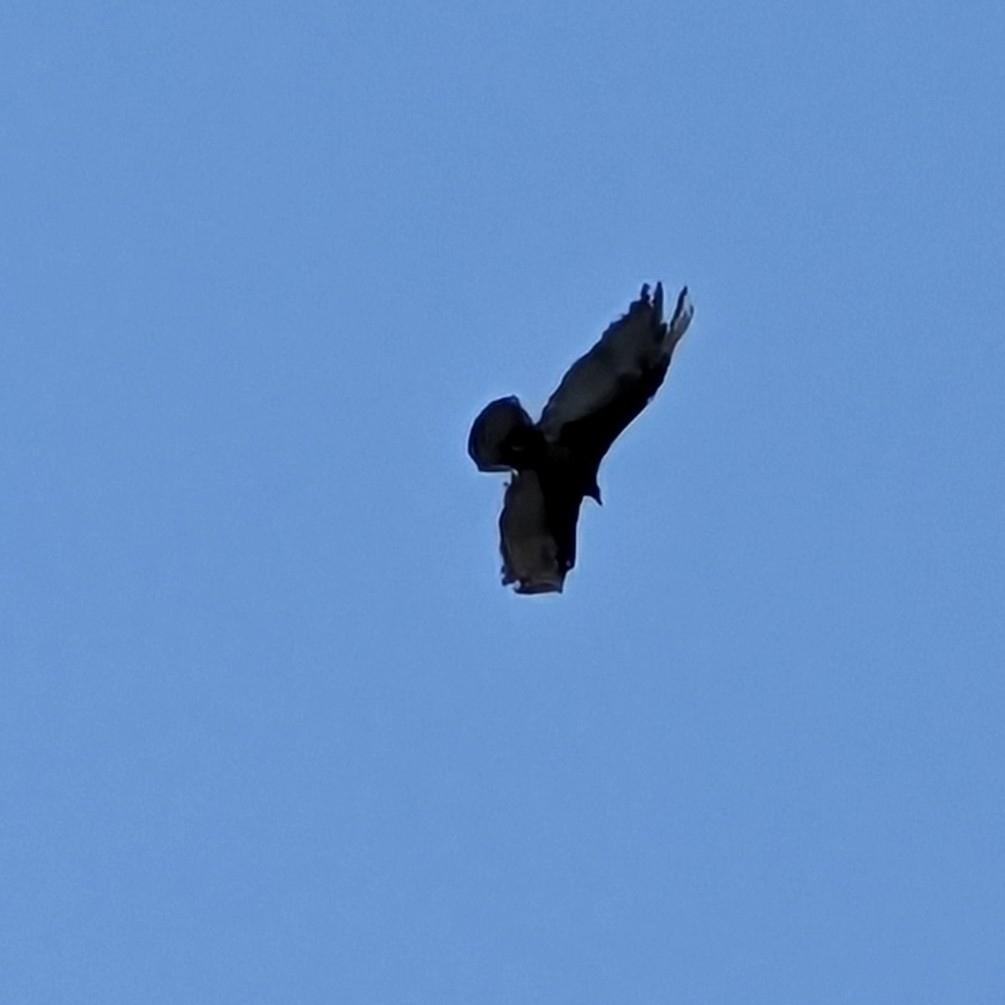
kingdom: Animalia
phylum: Chordata
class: Aves
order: Accipitriformes
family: Cathartidae
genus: Cathartes
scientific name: Cathartes aura
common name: Turkey vulture
